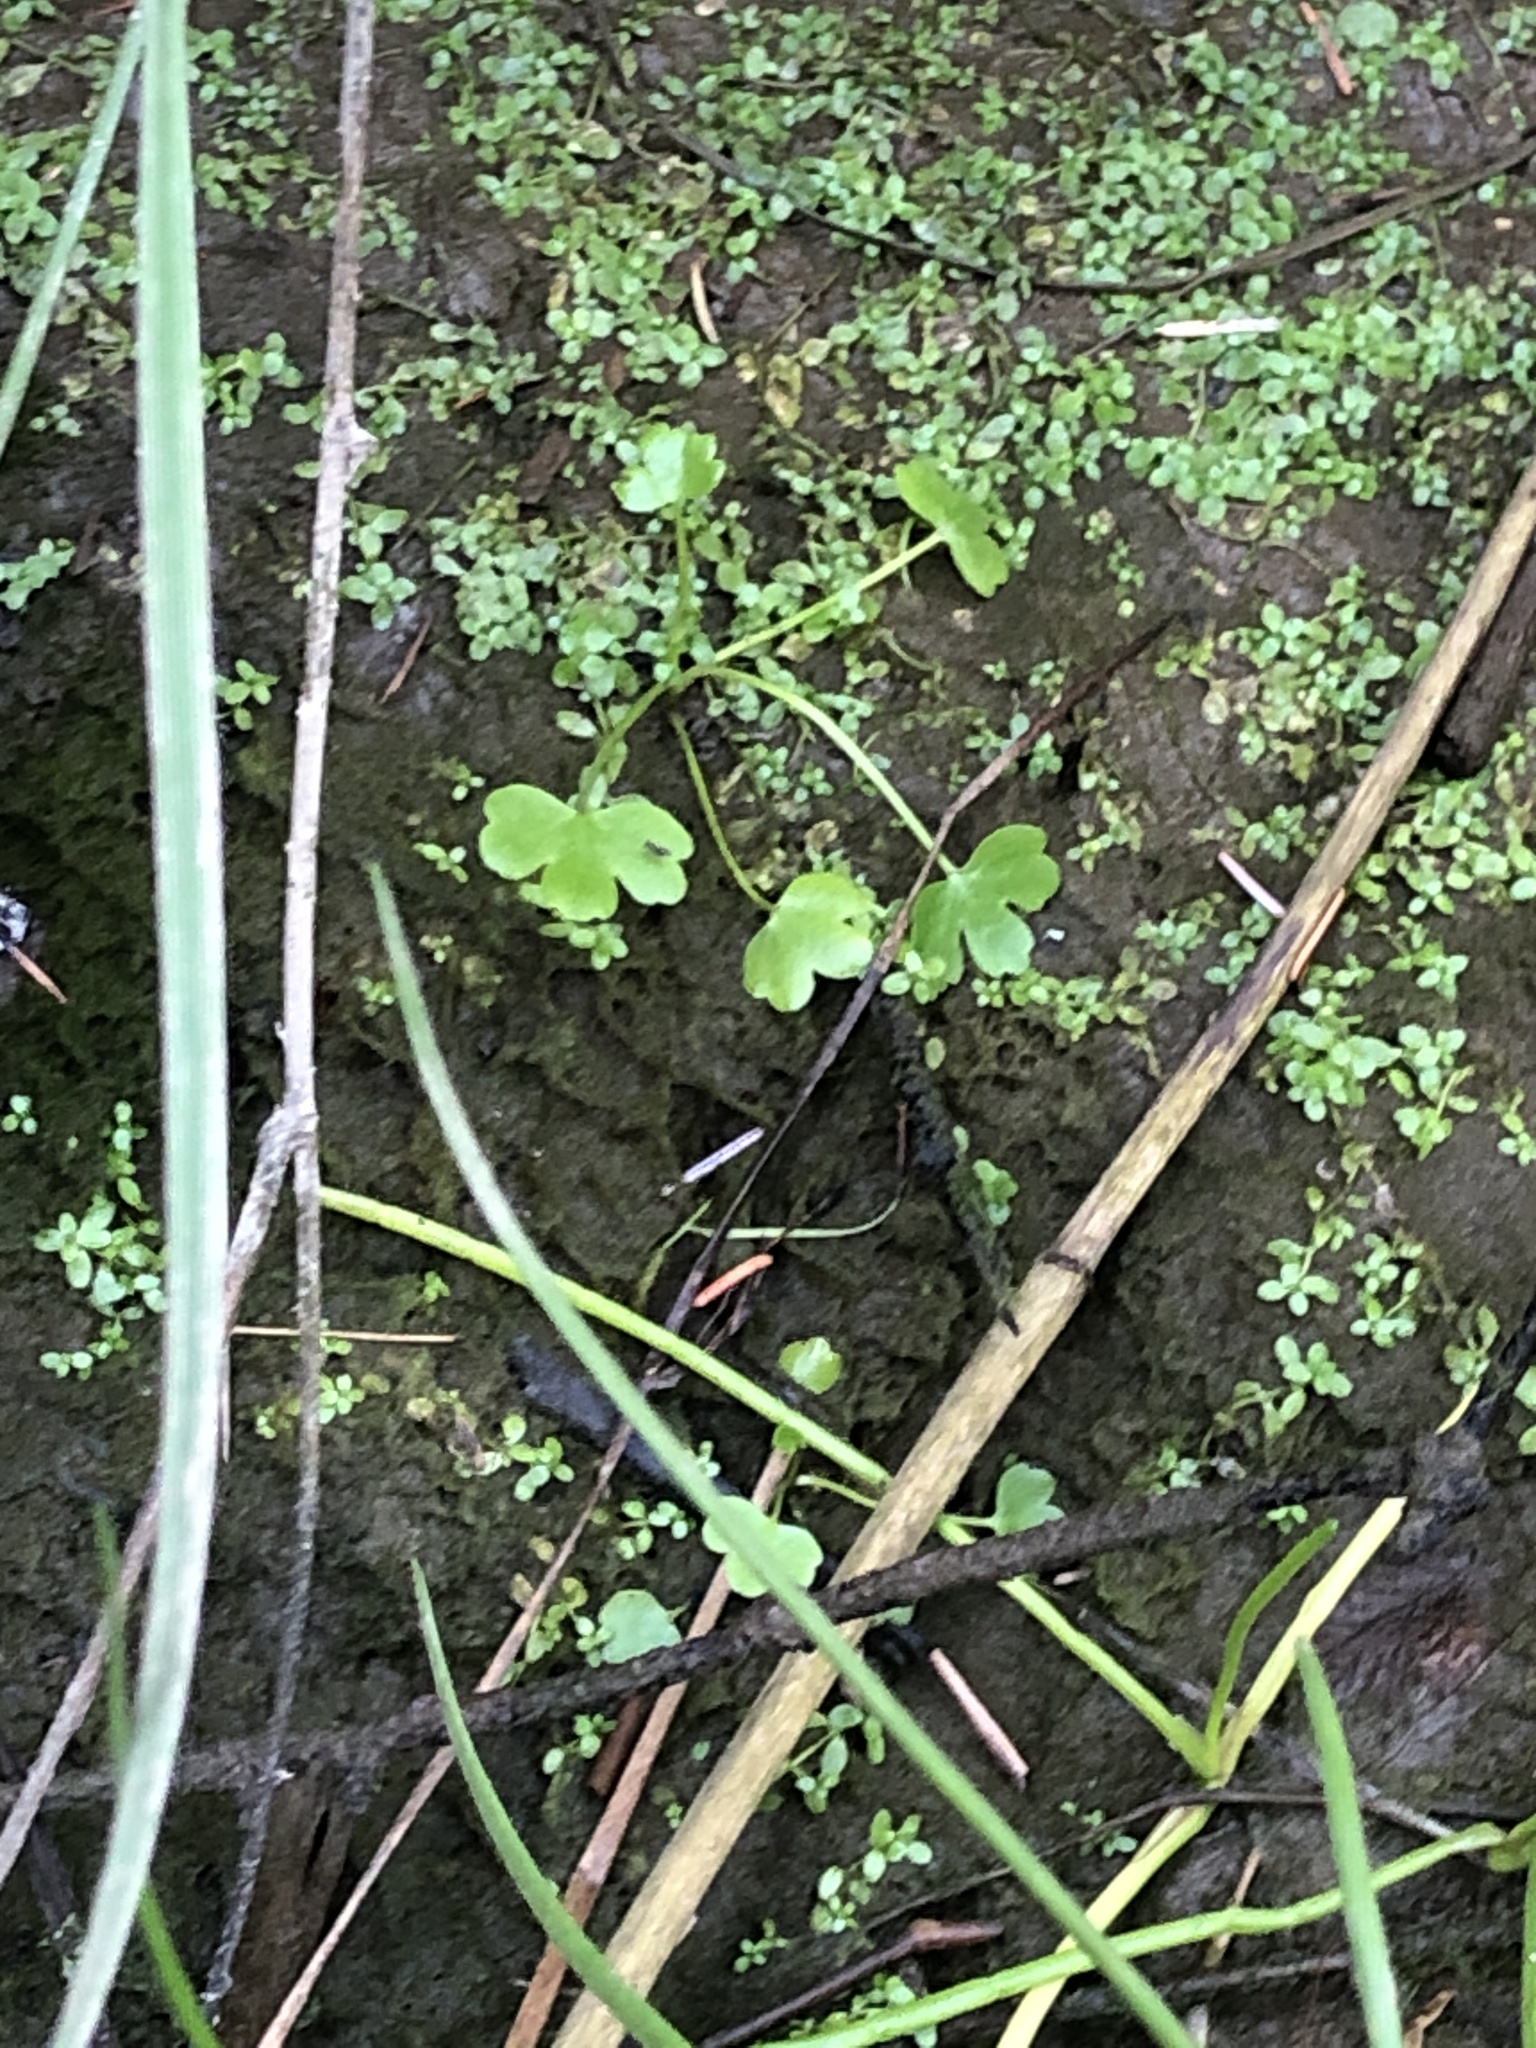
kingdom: Plantae
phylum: Tracheophyta
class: Magnoliopsida
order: Ranunculales
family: Ranunculaceae
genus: Ranunculus
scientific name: Ranunculus sceleratus
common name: Celery-leaved buttercup
